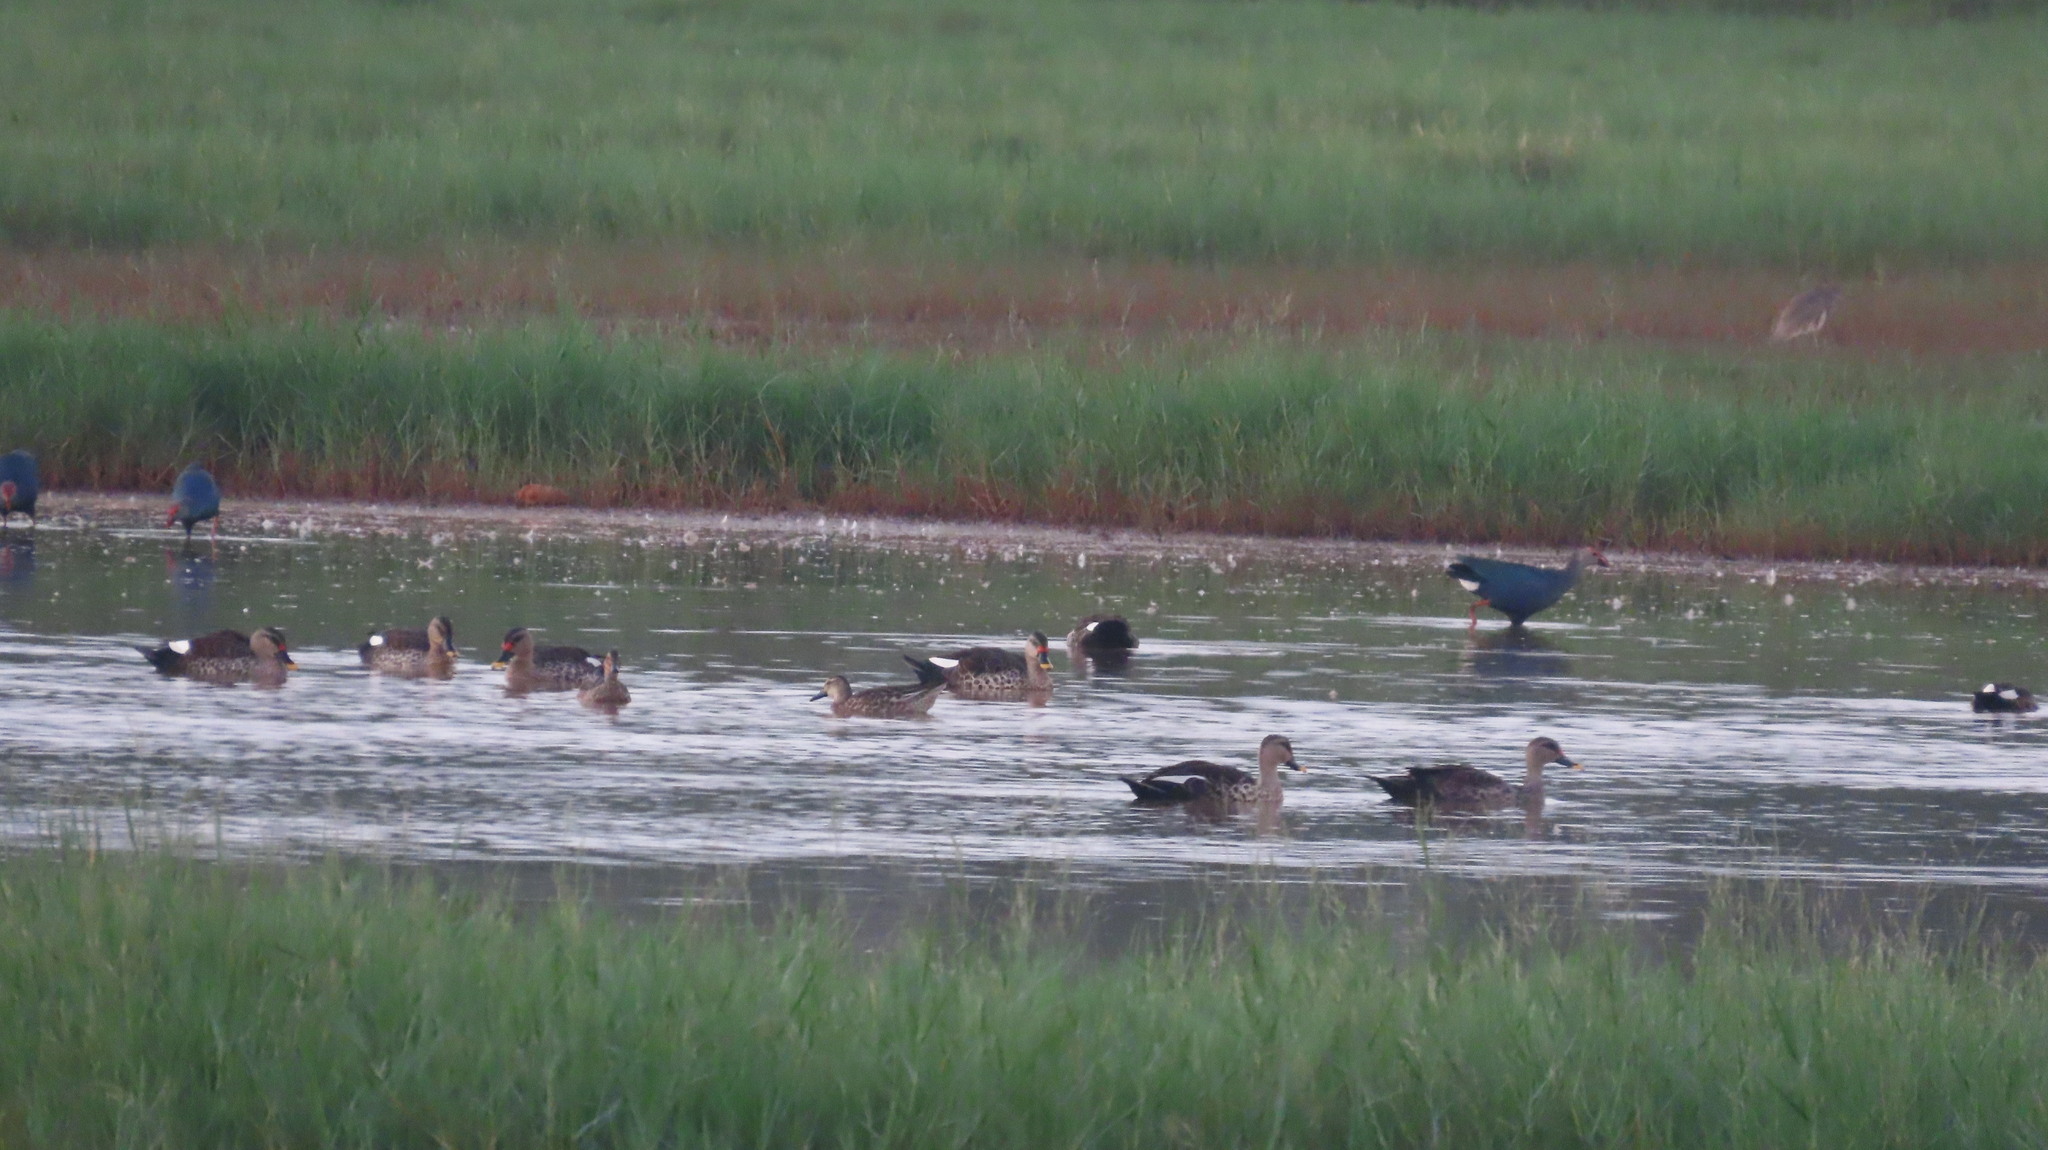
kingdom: Animalia
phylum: Chordata
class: Aves
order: Anseriformes
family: Anatidae
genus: Spatula
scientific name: Spatula querquedula
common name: Garganey
